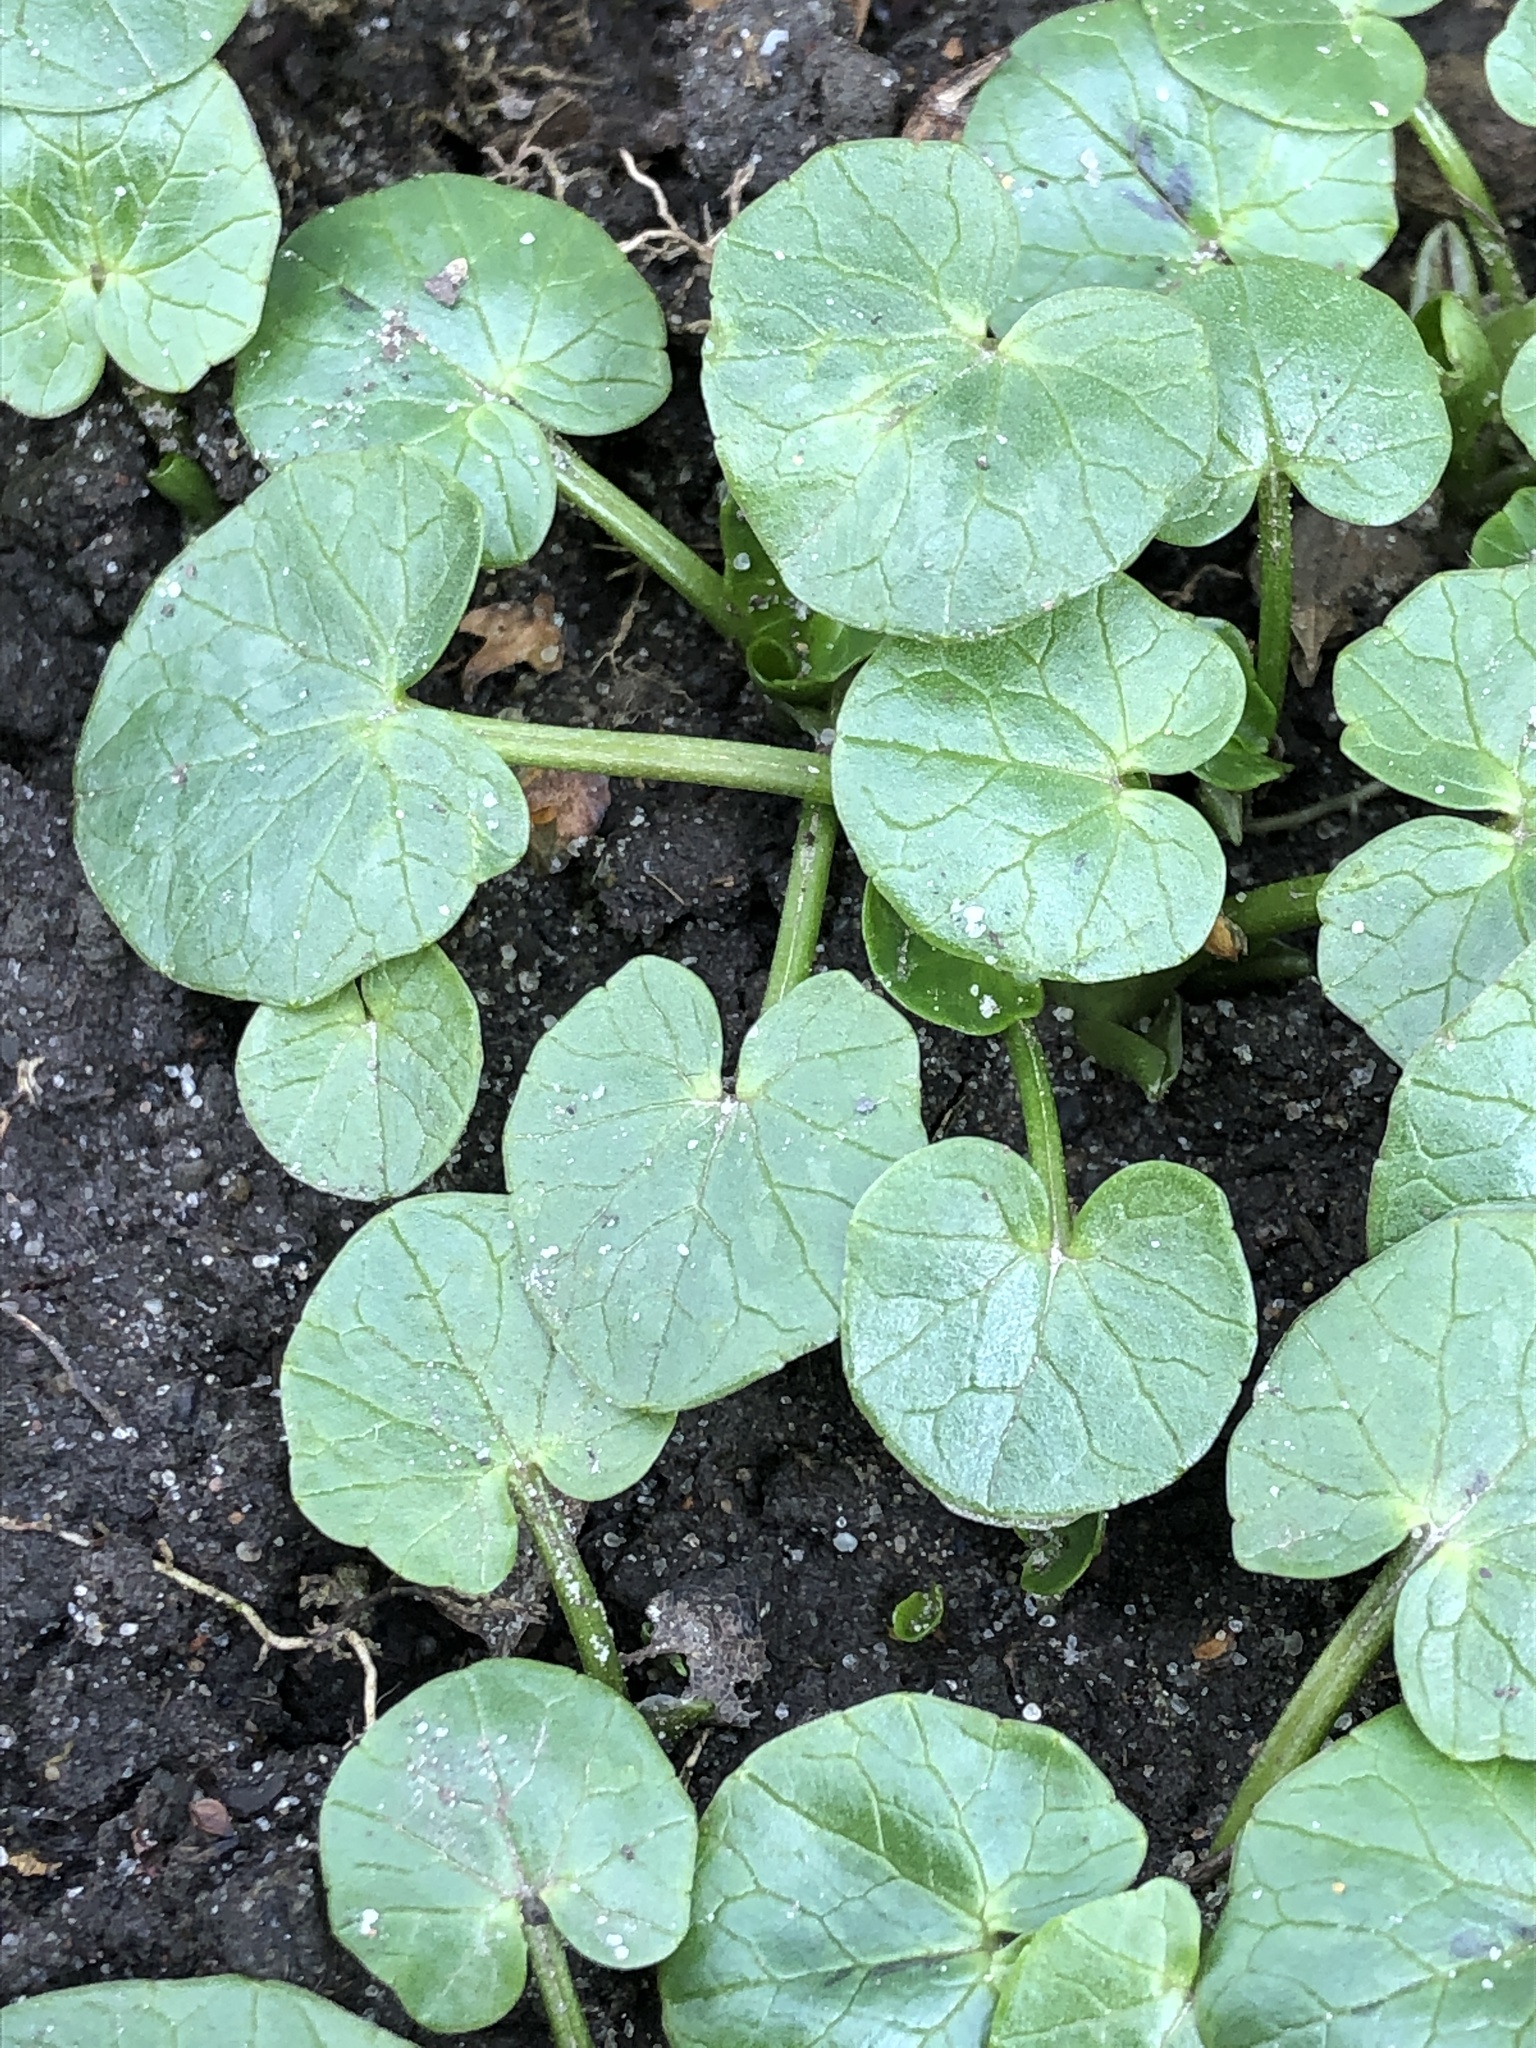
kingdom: Plantae
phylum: Tracheophyta
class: Magnoliopsida
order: Ranunculales
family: Ranunculaceae
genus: Ficaria
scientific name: Ficaria verna
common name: Lesser celandine
